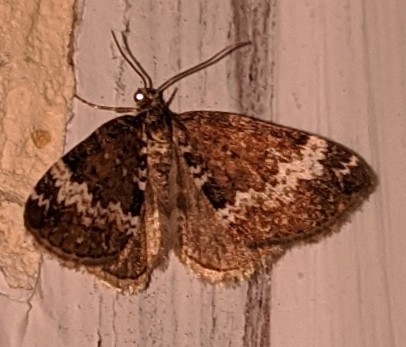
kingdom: Animalia
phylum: Arthropoda
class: Insecta
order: Lepidoptera
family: Geometridae
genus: Perizoma
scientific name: Perizoma alchemillata
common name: Small rivulet
